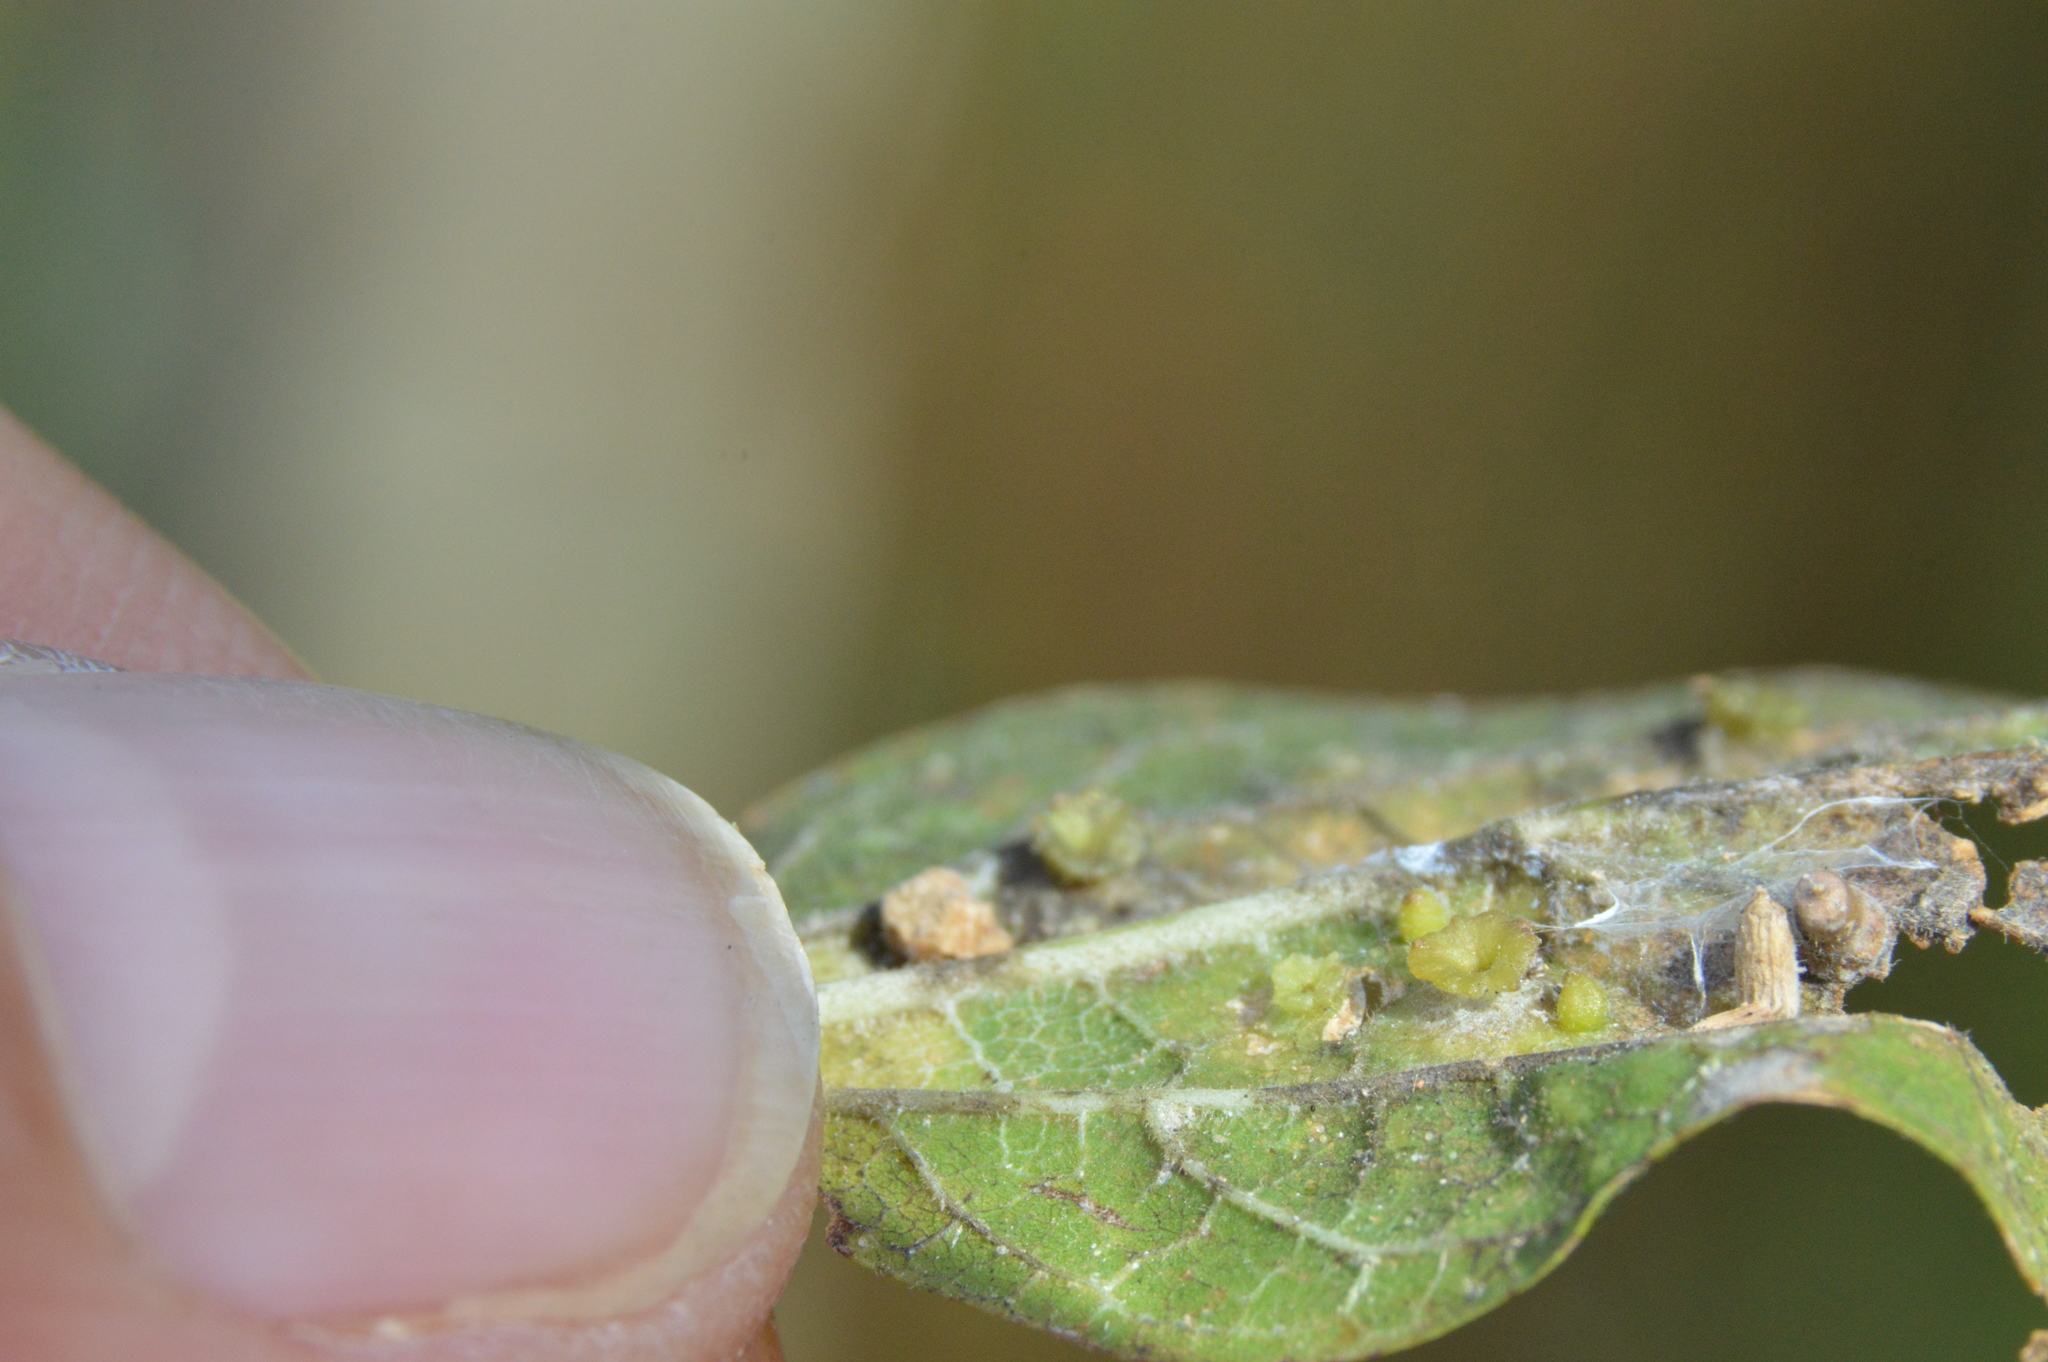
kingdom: Animalia
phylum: Arthropoda
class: Insecta
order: Hemiptera
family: Aphalaridae
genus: Pachypsylla
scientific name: Pachypsylla celtidisasterisca
